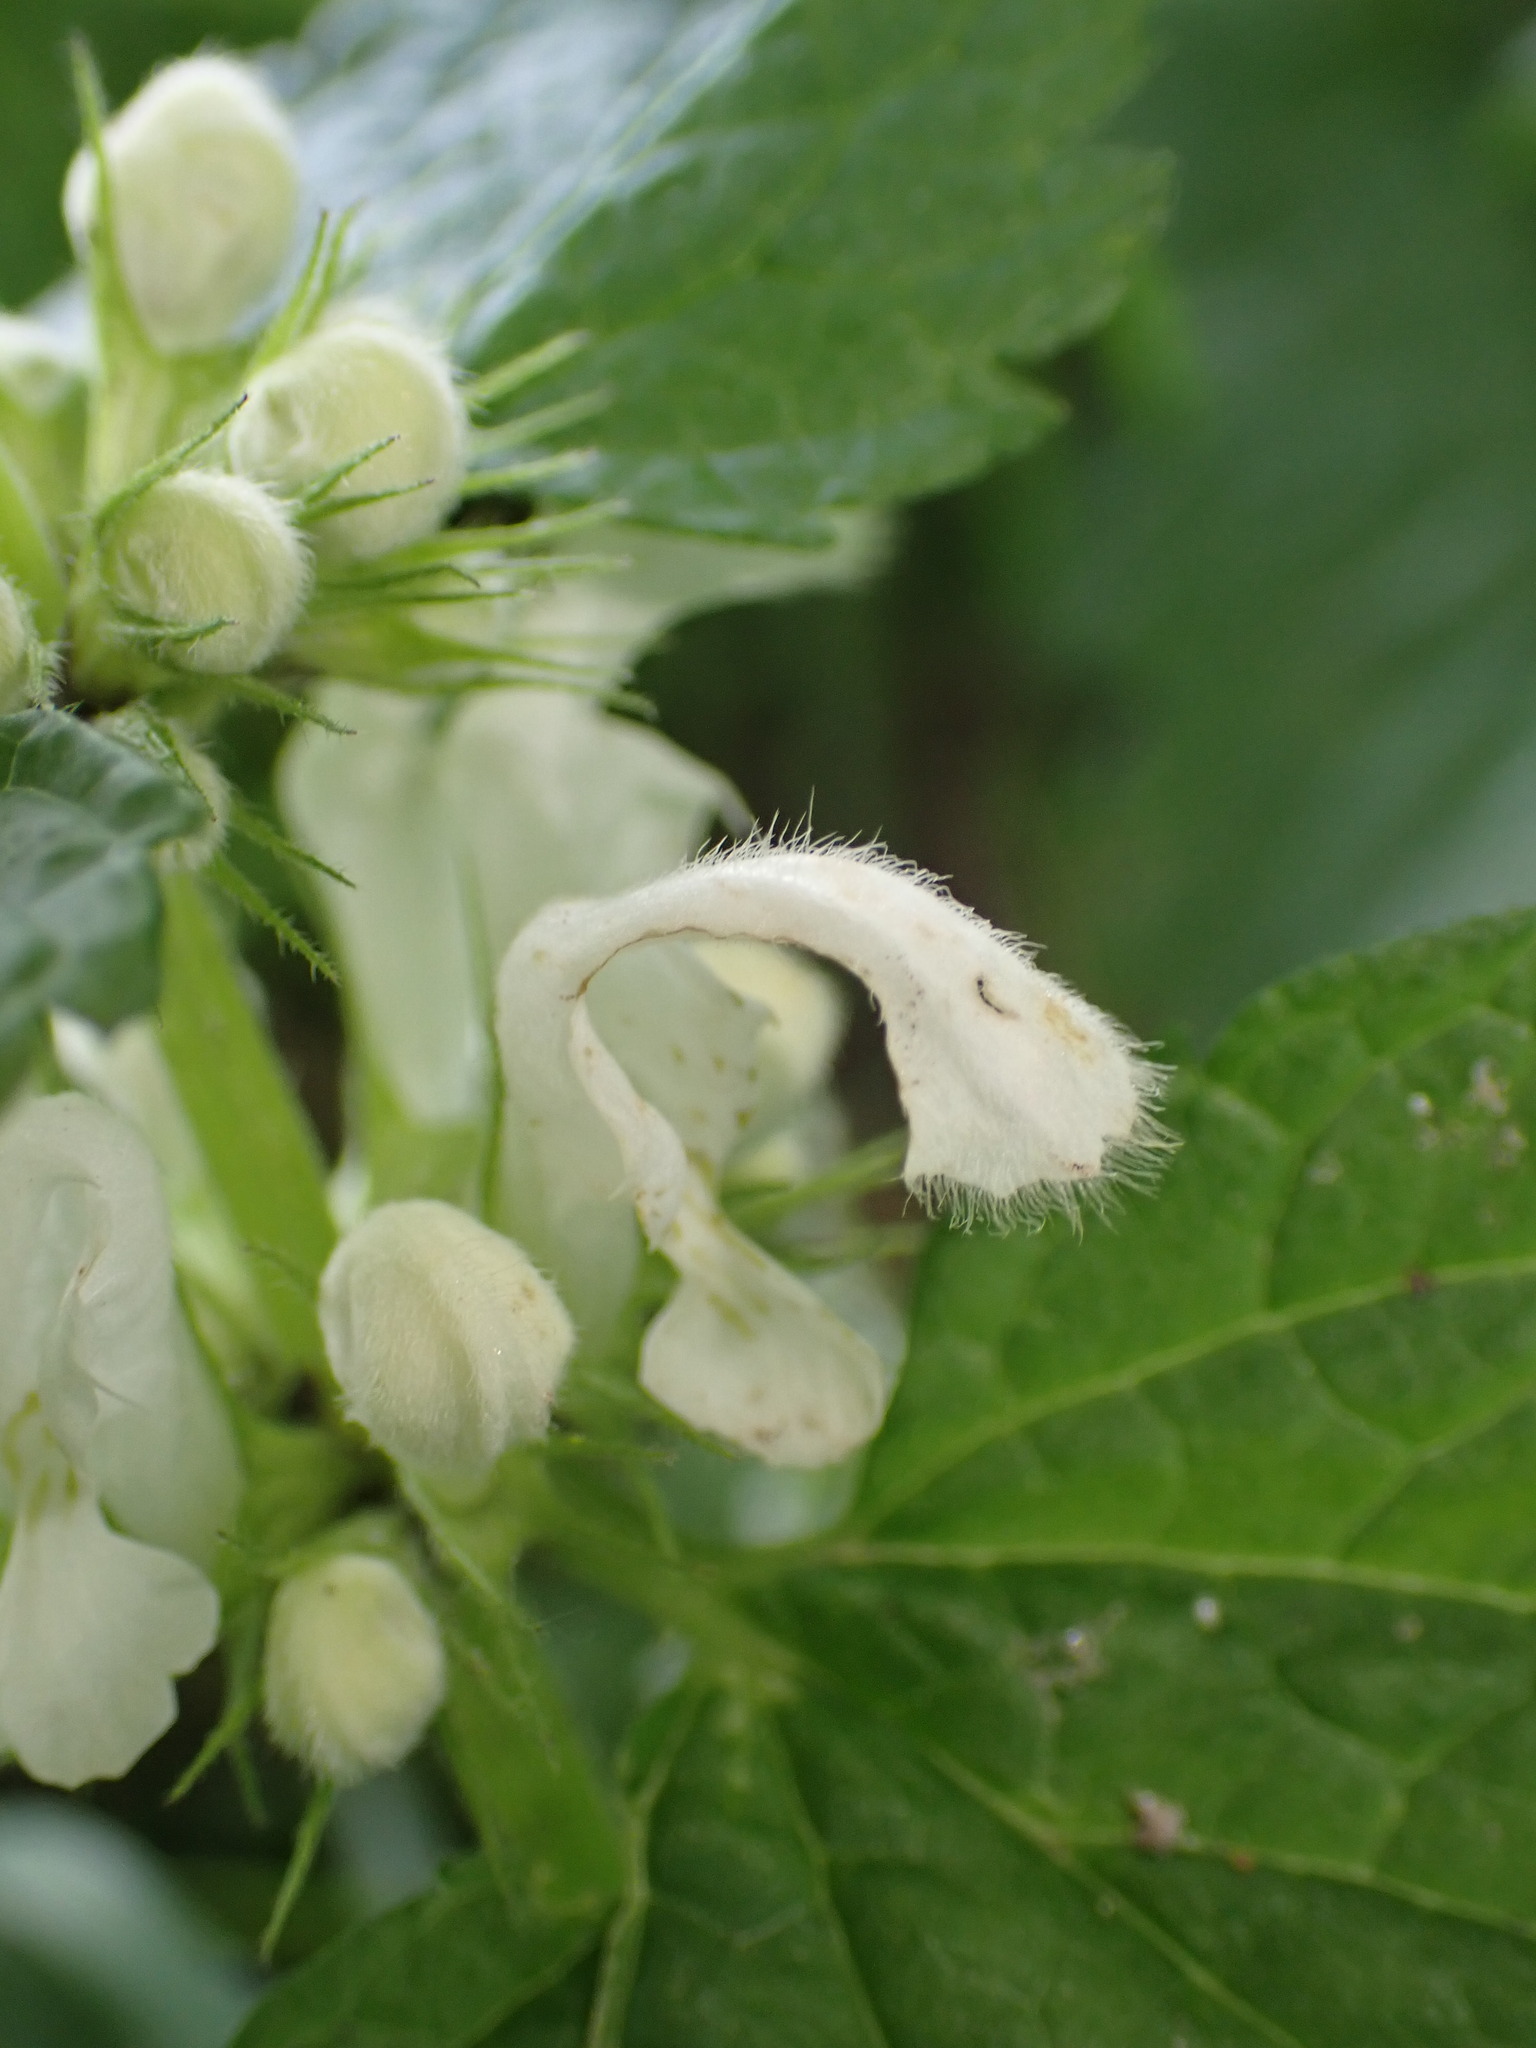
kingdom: Plantae
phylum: Tracheophyta
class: Magnoliopsida
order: Lamiales
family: Lamiaceae
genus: Lamium
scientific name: Lamium album
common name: White dead-nettle
